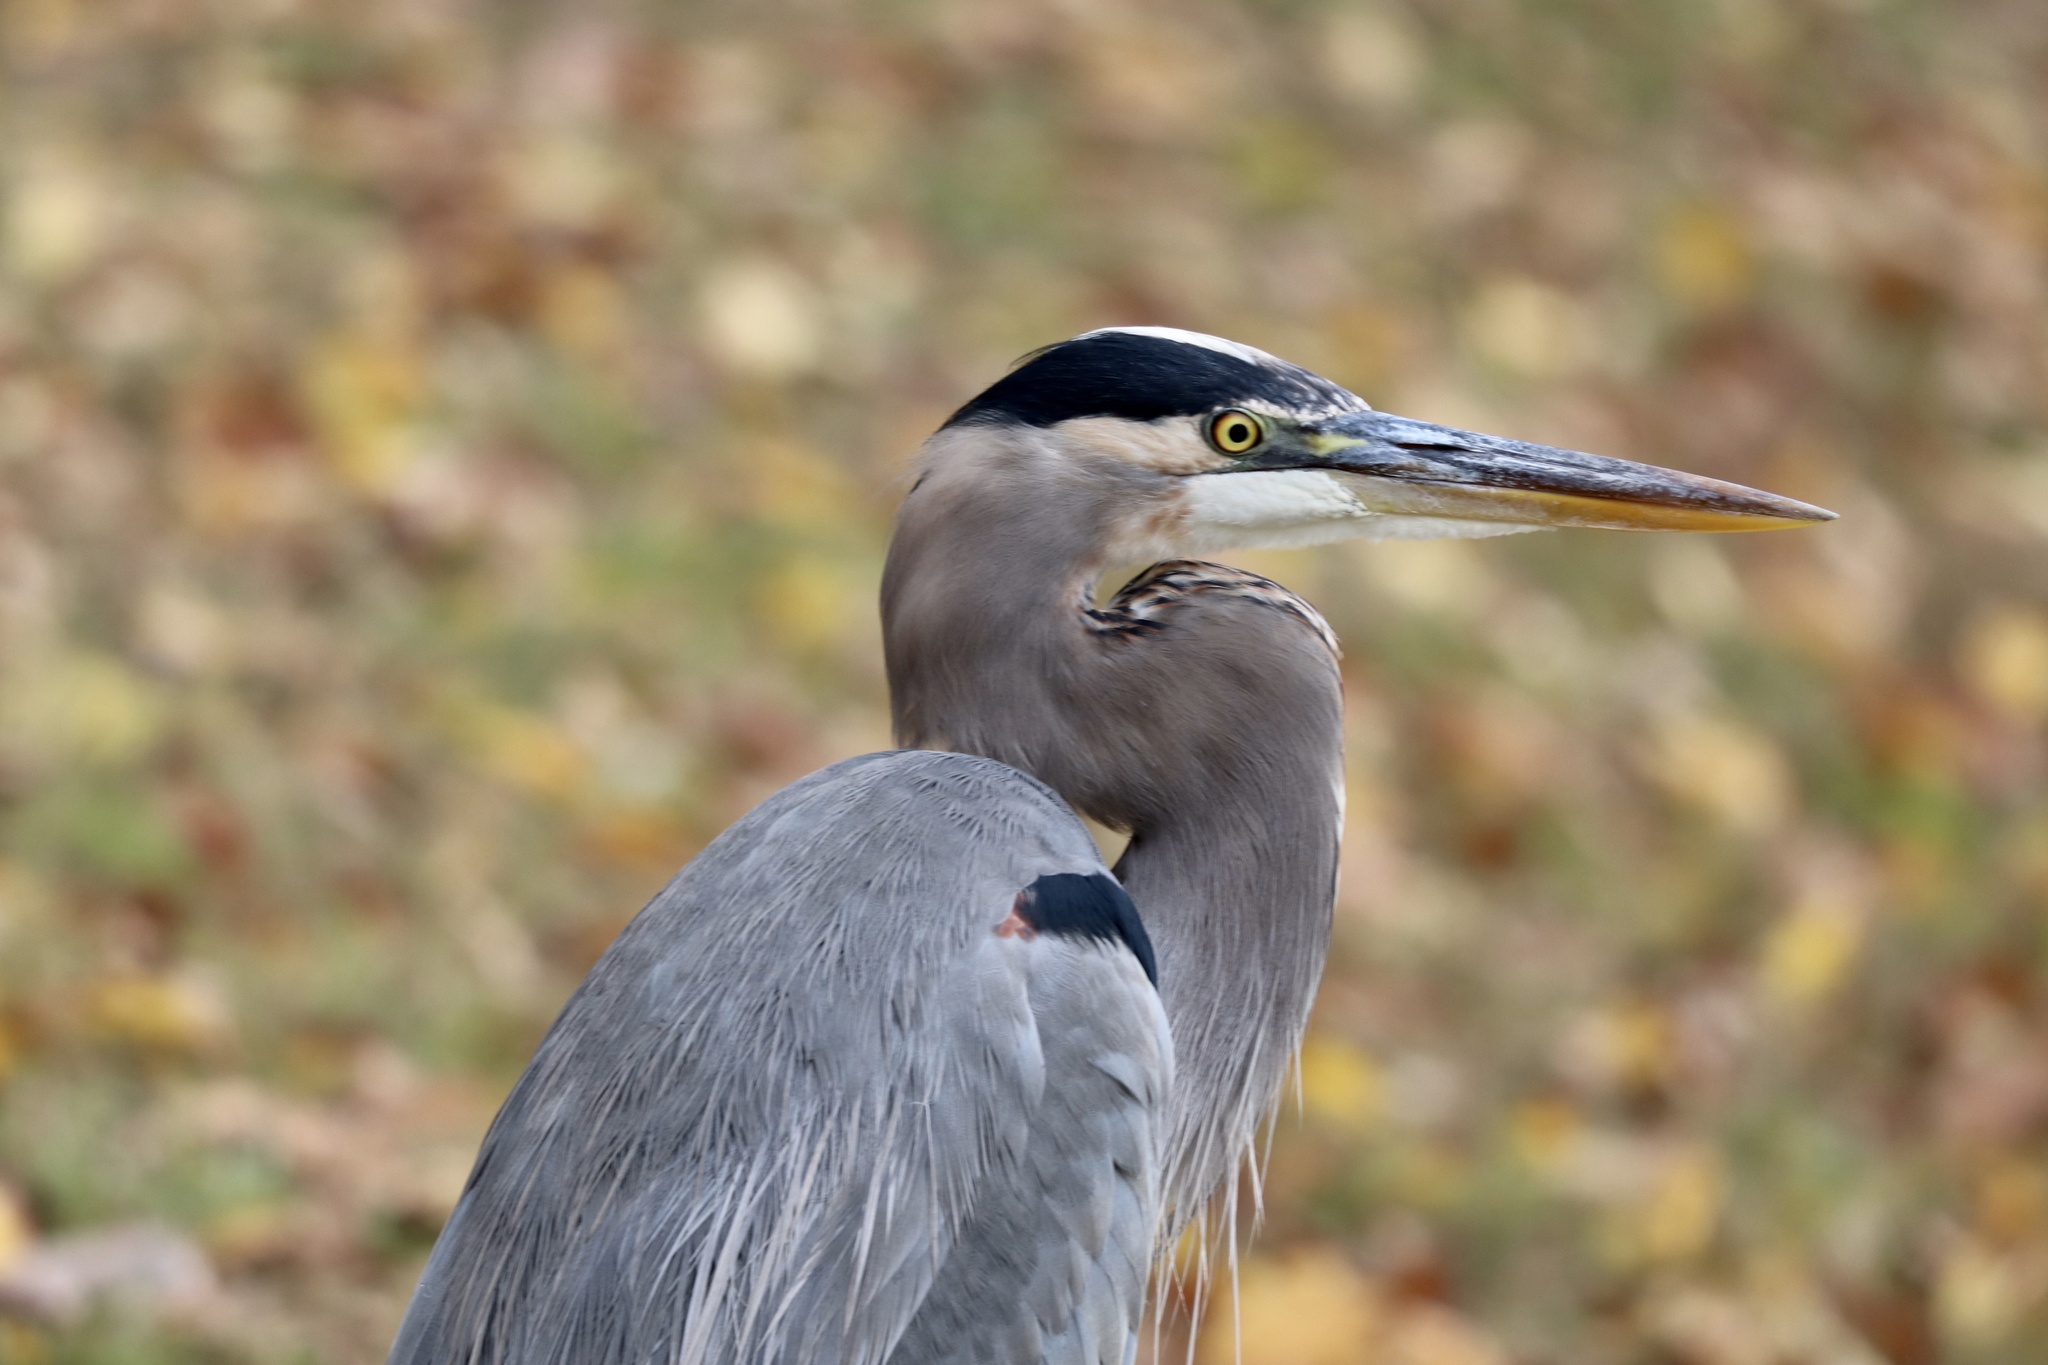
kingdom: Animalia
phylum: Chordata
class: Aves
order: Pelecaniformes
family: Ardeidae
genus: Ardea
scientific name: Ardea herodias
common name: Great blue heron
